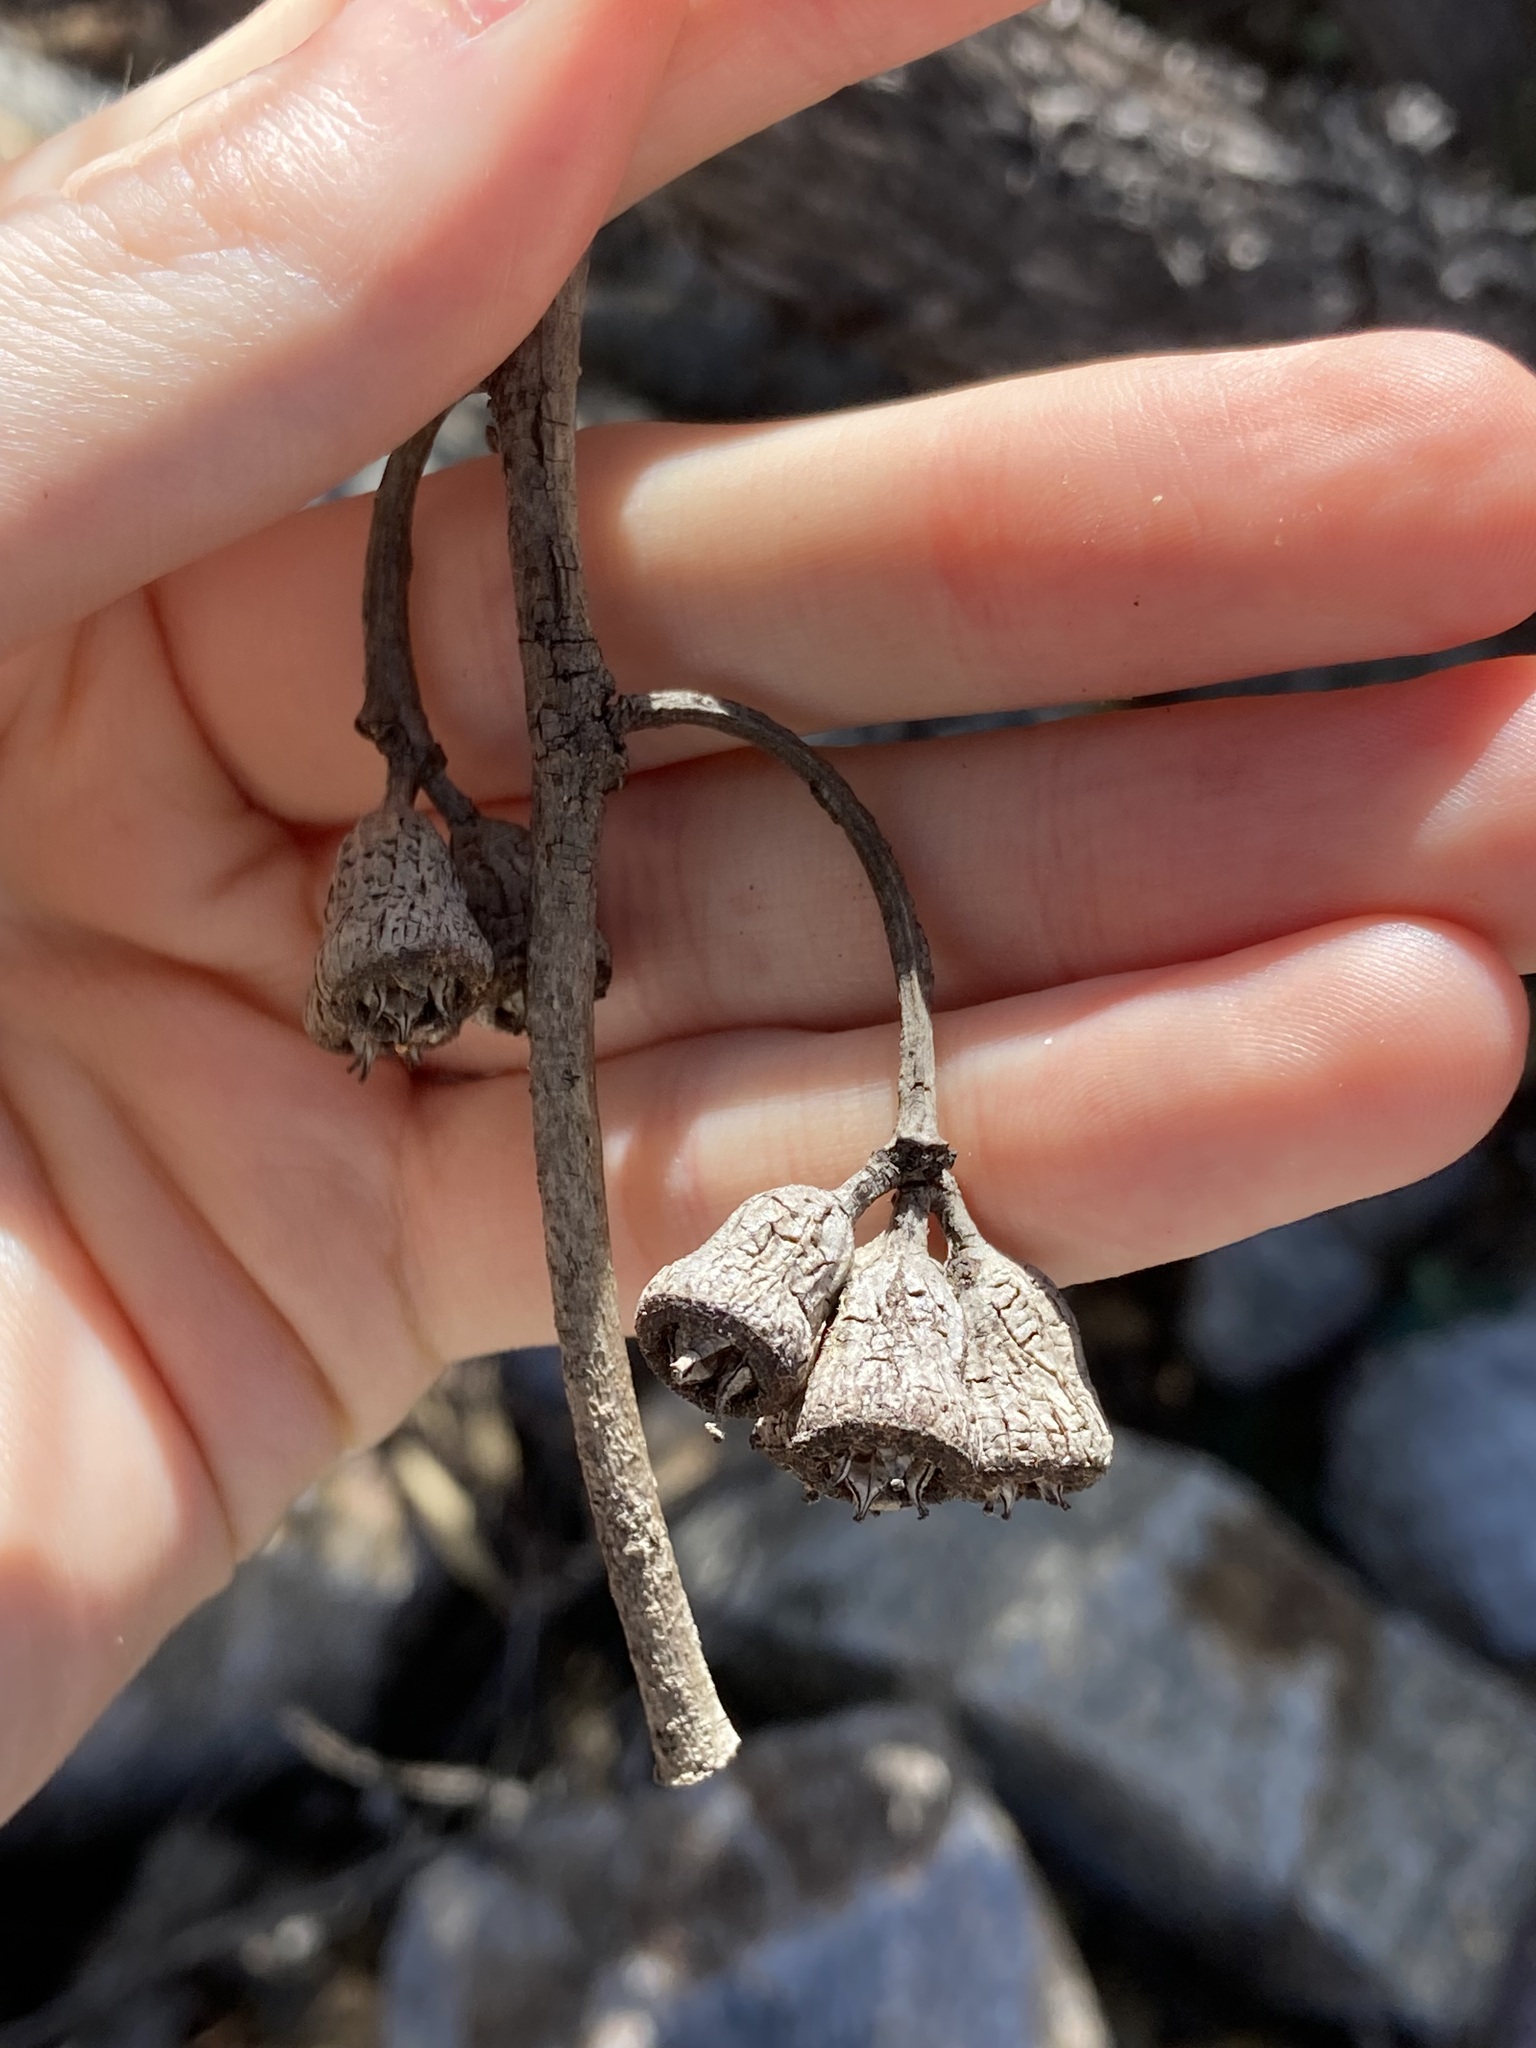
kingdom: Plantae
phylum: Tracheophyta
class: Magnoliopsida
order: Myrtales
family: Myrtaceae
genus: Eucalyptus
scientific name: Eucalyptus occidentalis
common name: Swamp yate
